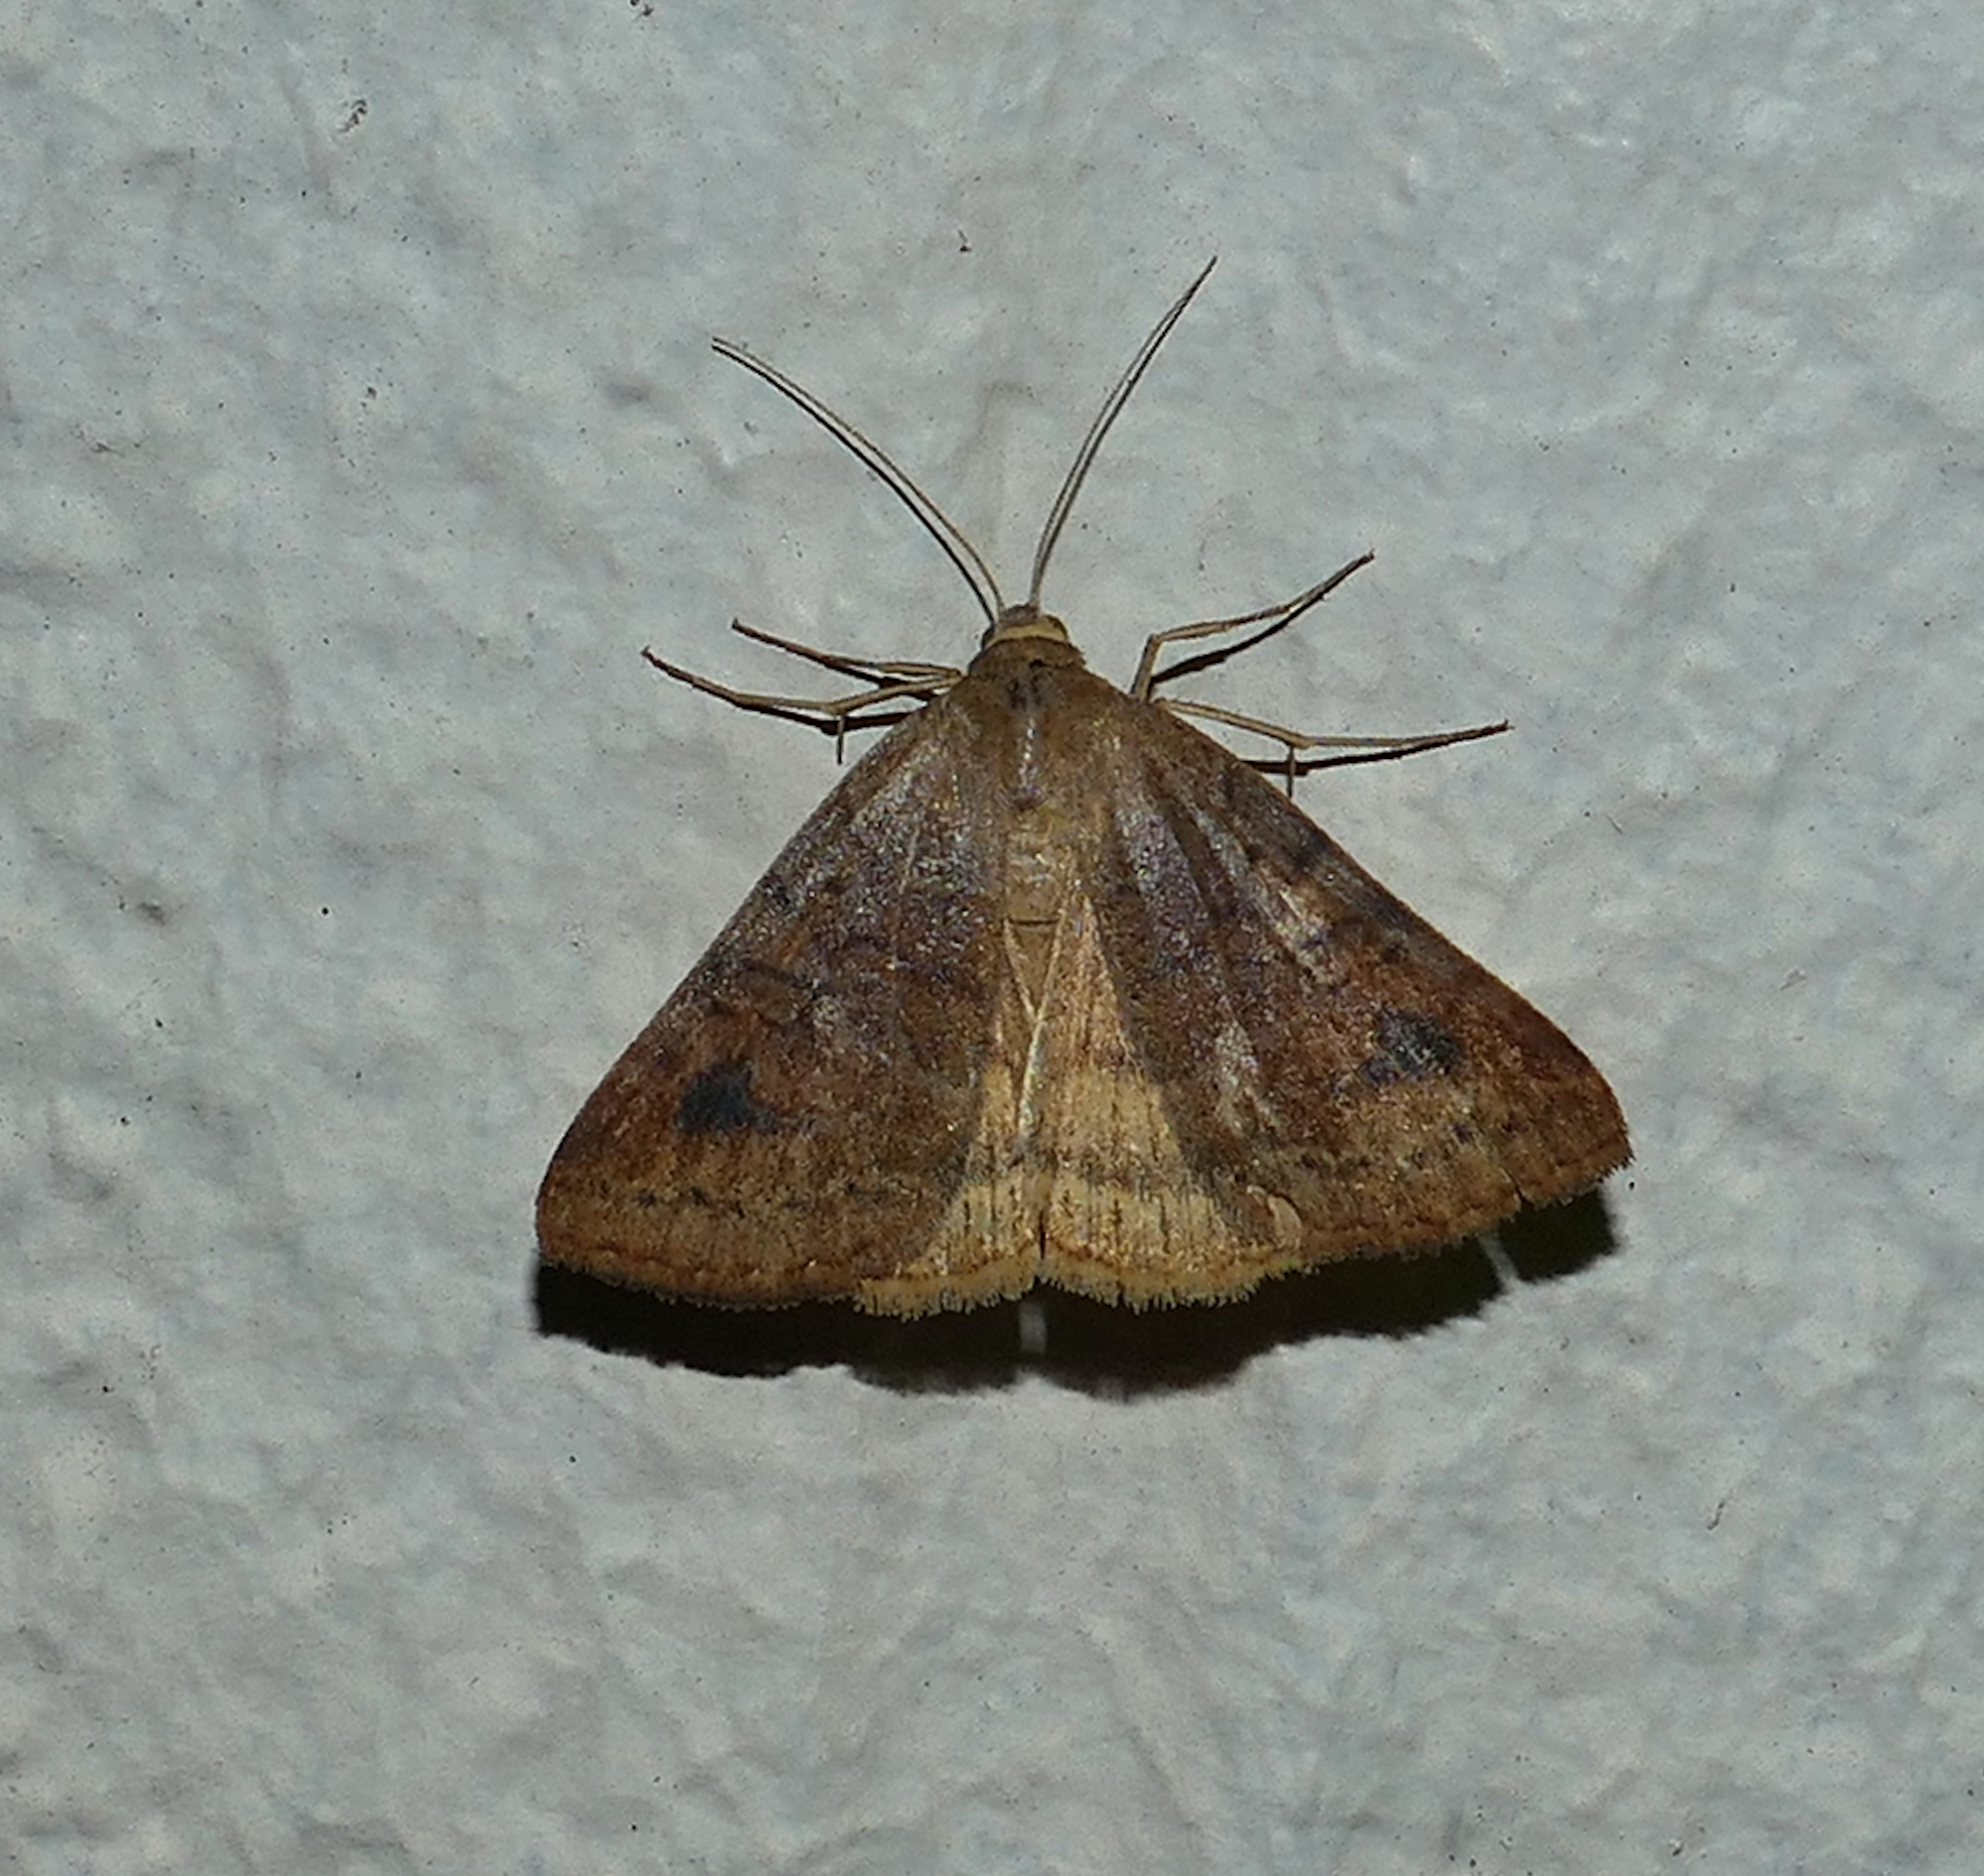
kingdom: Animalia
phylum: Arthropoda
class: Insecta
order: Lepidoptera
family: Erebidae
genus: Caenurgia
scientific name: Caenurgia chloropha
